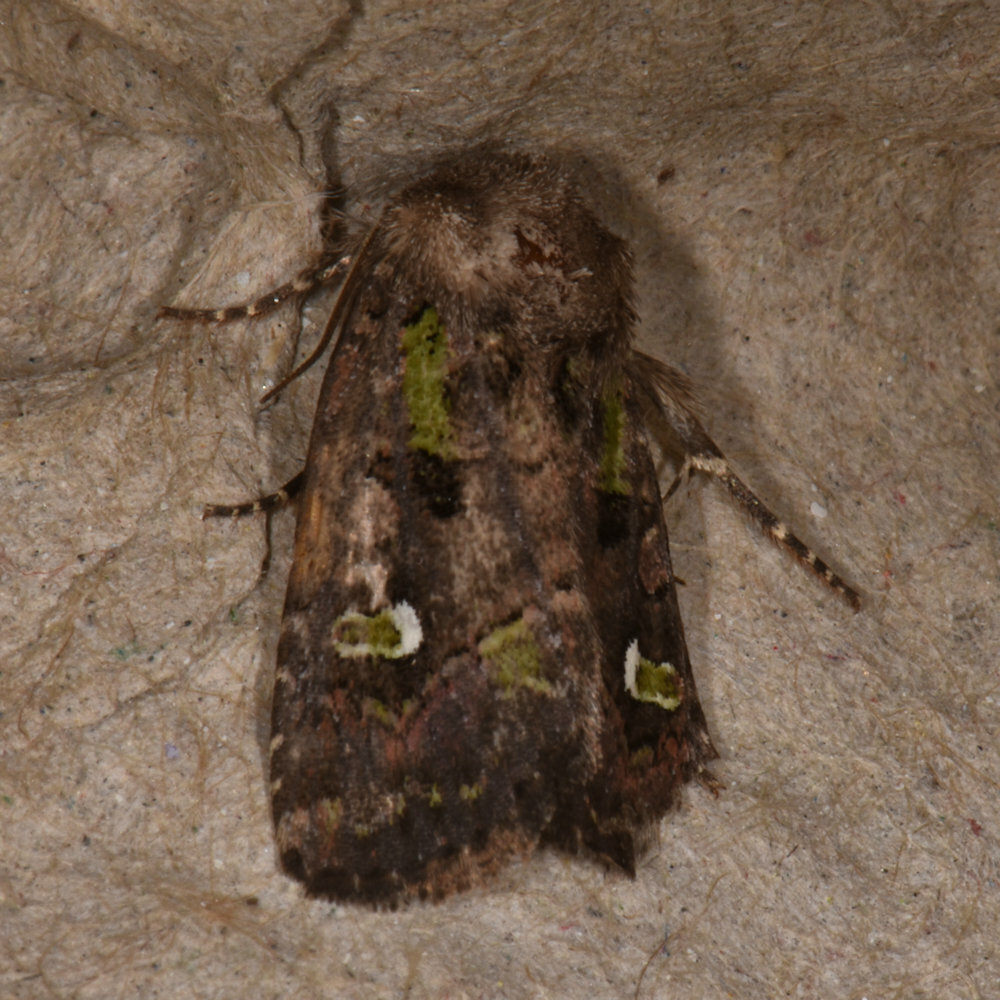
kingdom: Animalia
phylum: Arthropoda
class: Insecta
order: Lepidoptera
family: Noctuidae
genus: Lacinipolia
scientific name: Lacinipolia renigera
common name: Kidney-spotted minor
